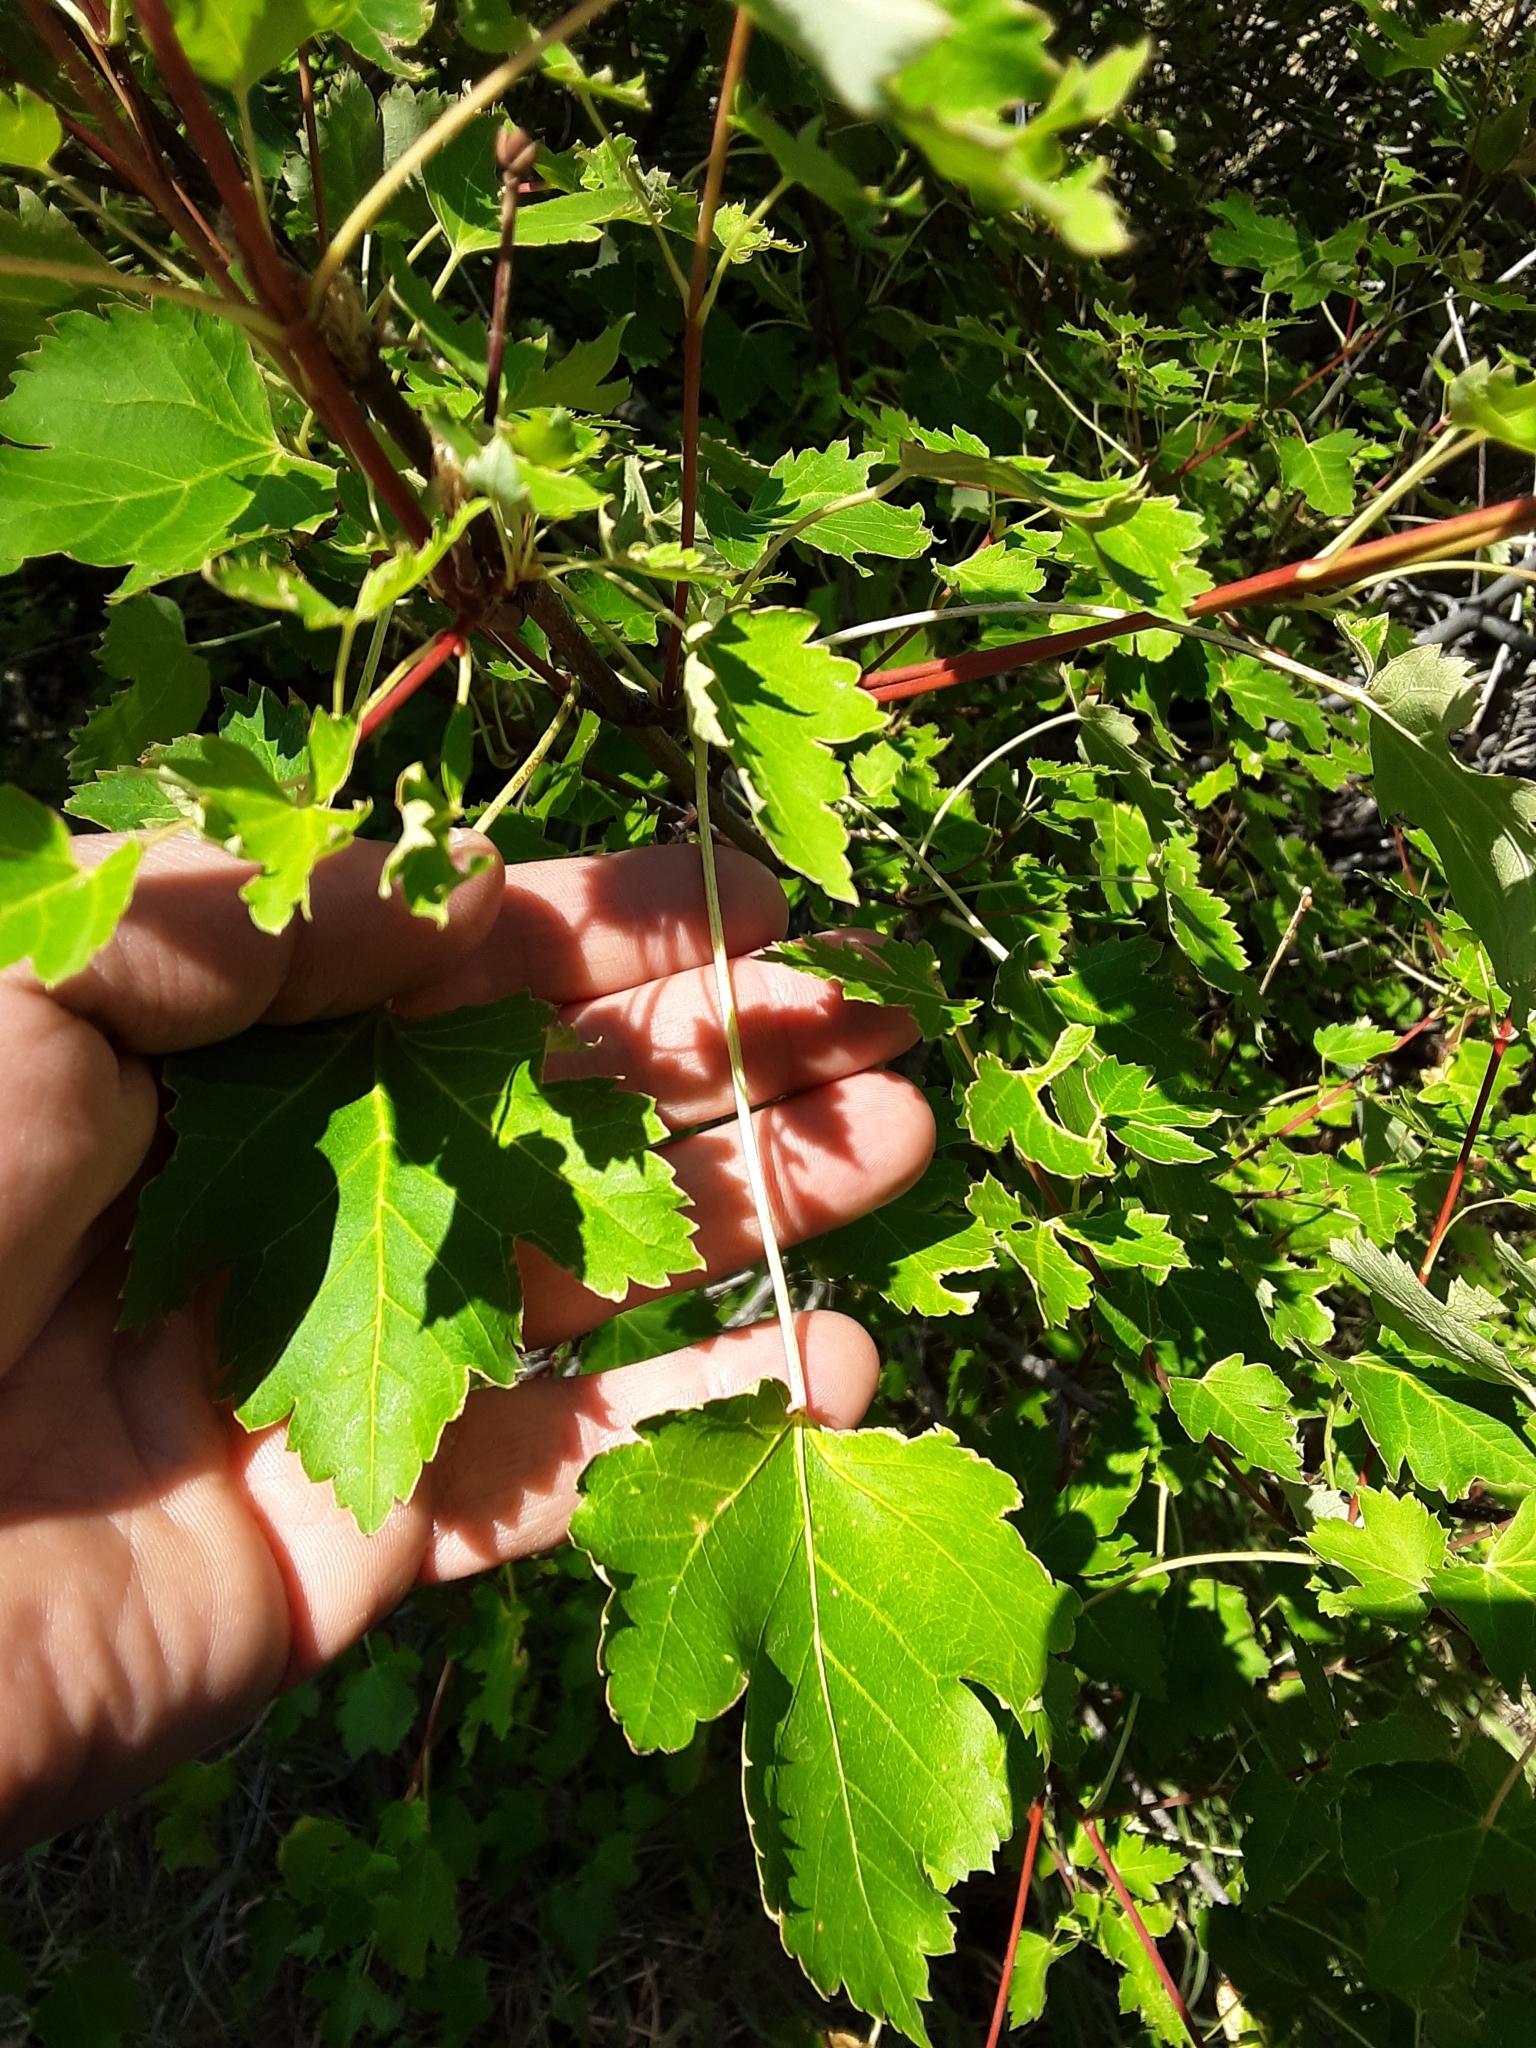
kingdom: Plantae
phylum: Tracheophyta
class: Magnoliopsida
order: Sapindales
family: Sapindaceae
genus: Acer
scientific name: Acer glabrum
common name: Rocky mountain maple
